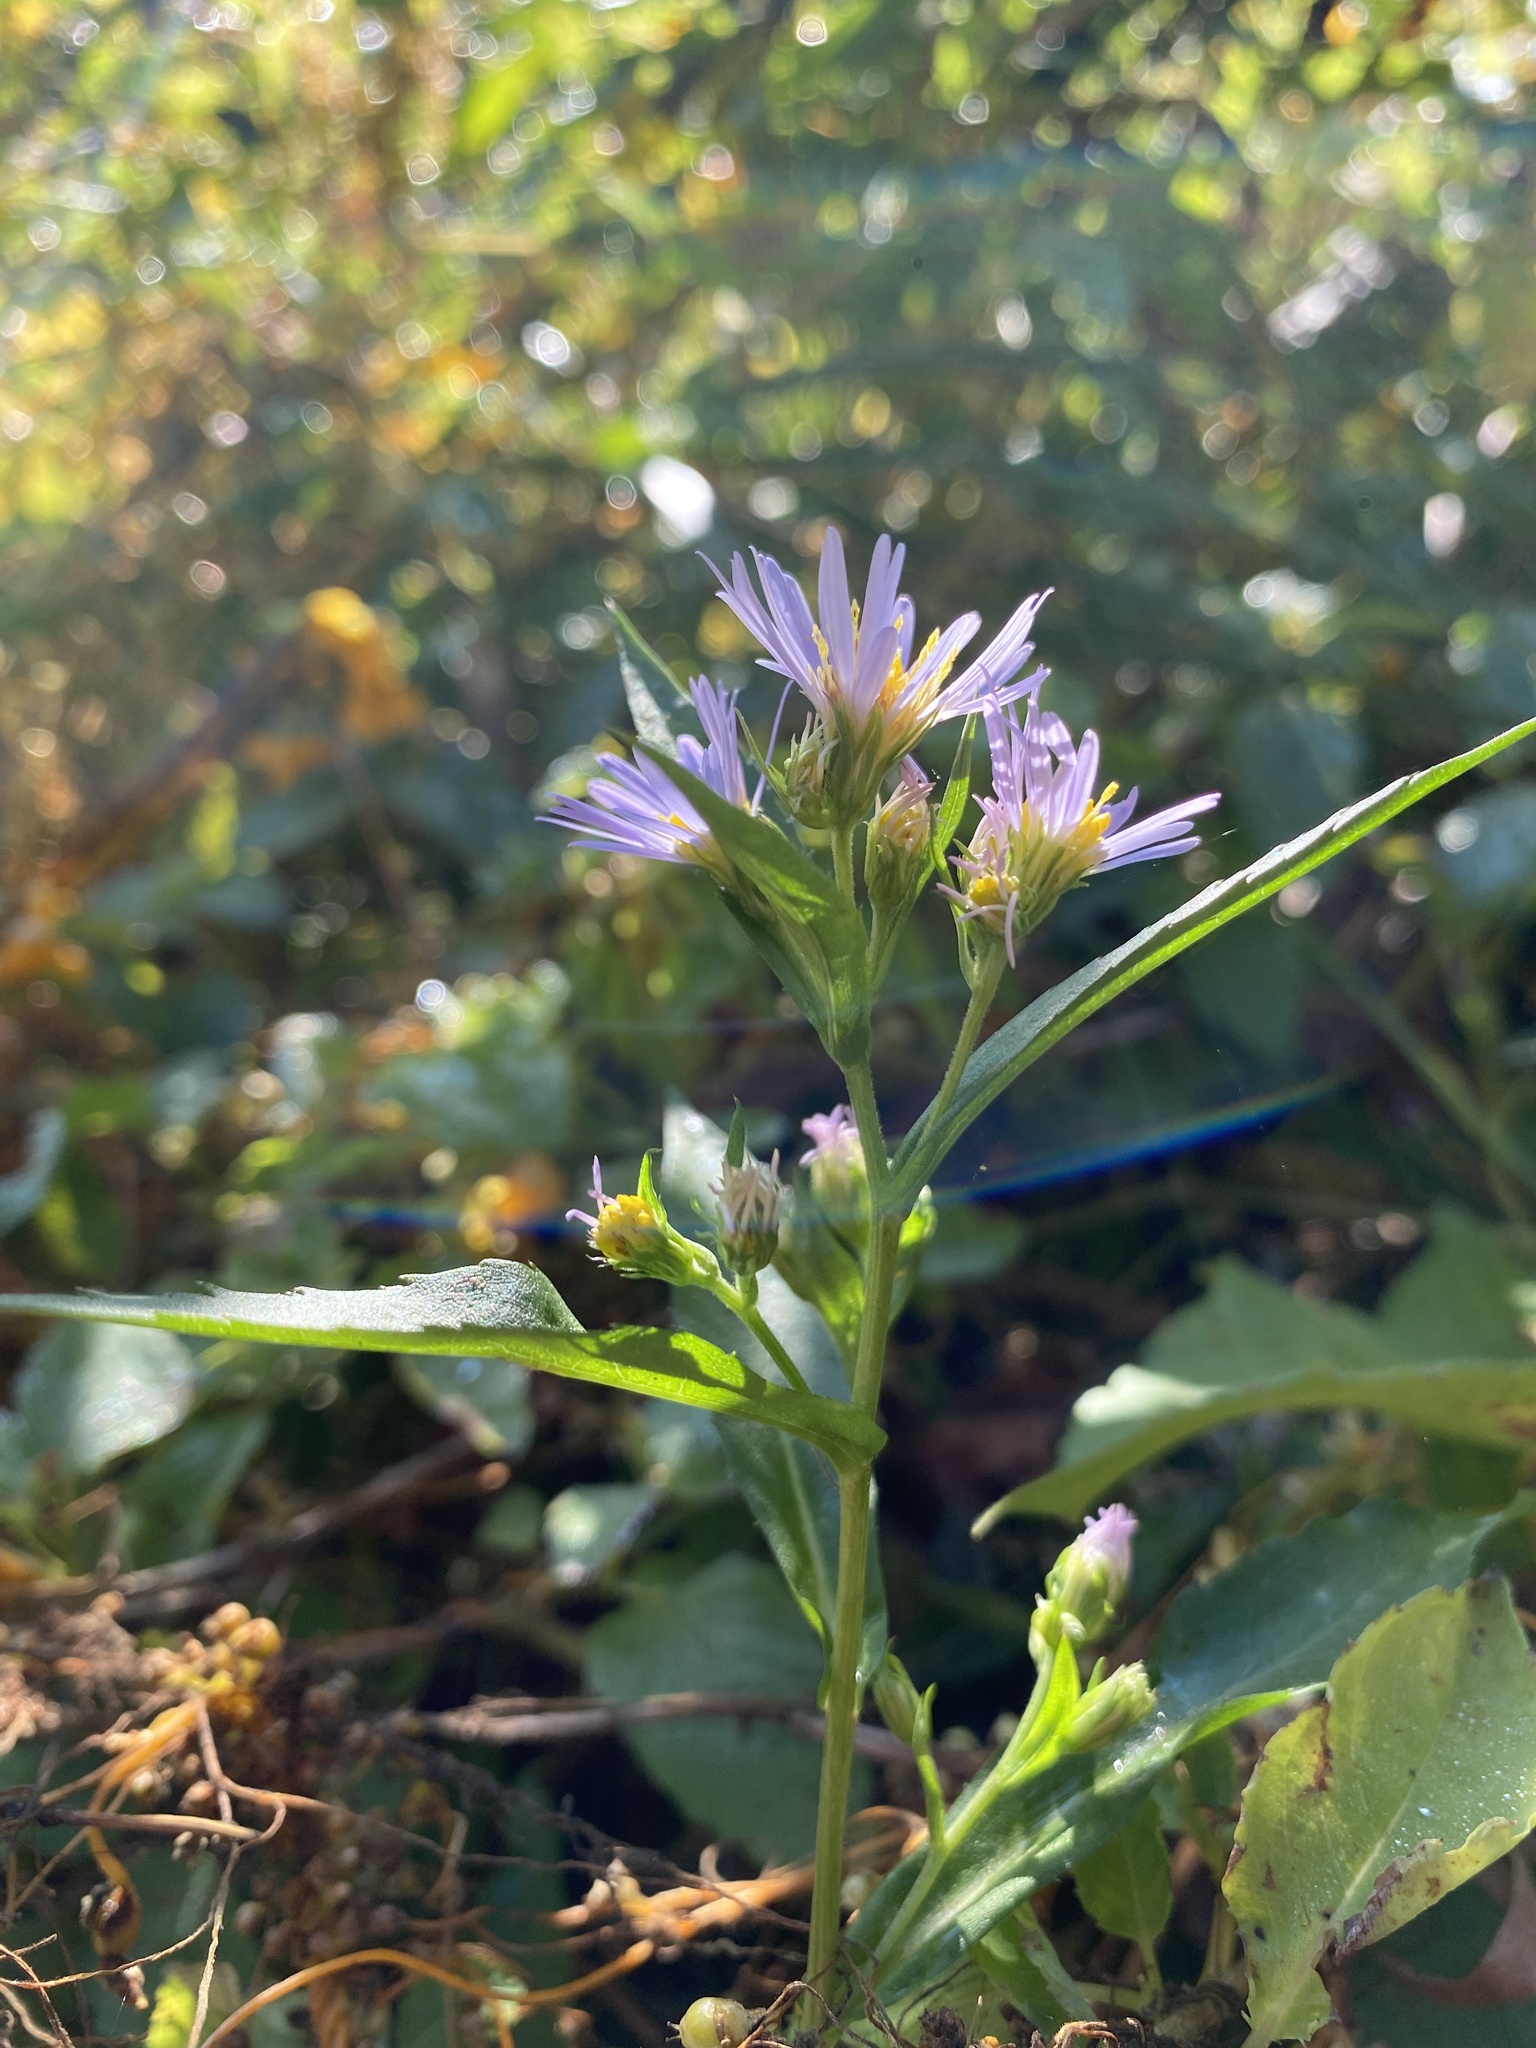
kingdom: Plantae
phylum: Tracheophyta
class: Magnoliopsida
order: Asterales
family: Asteraceae
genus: Symphyotrichum
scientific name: Symphyotrichum puniceum
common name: Bog aster
